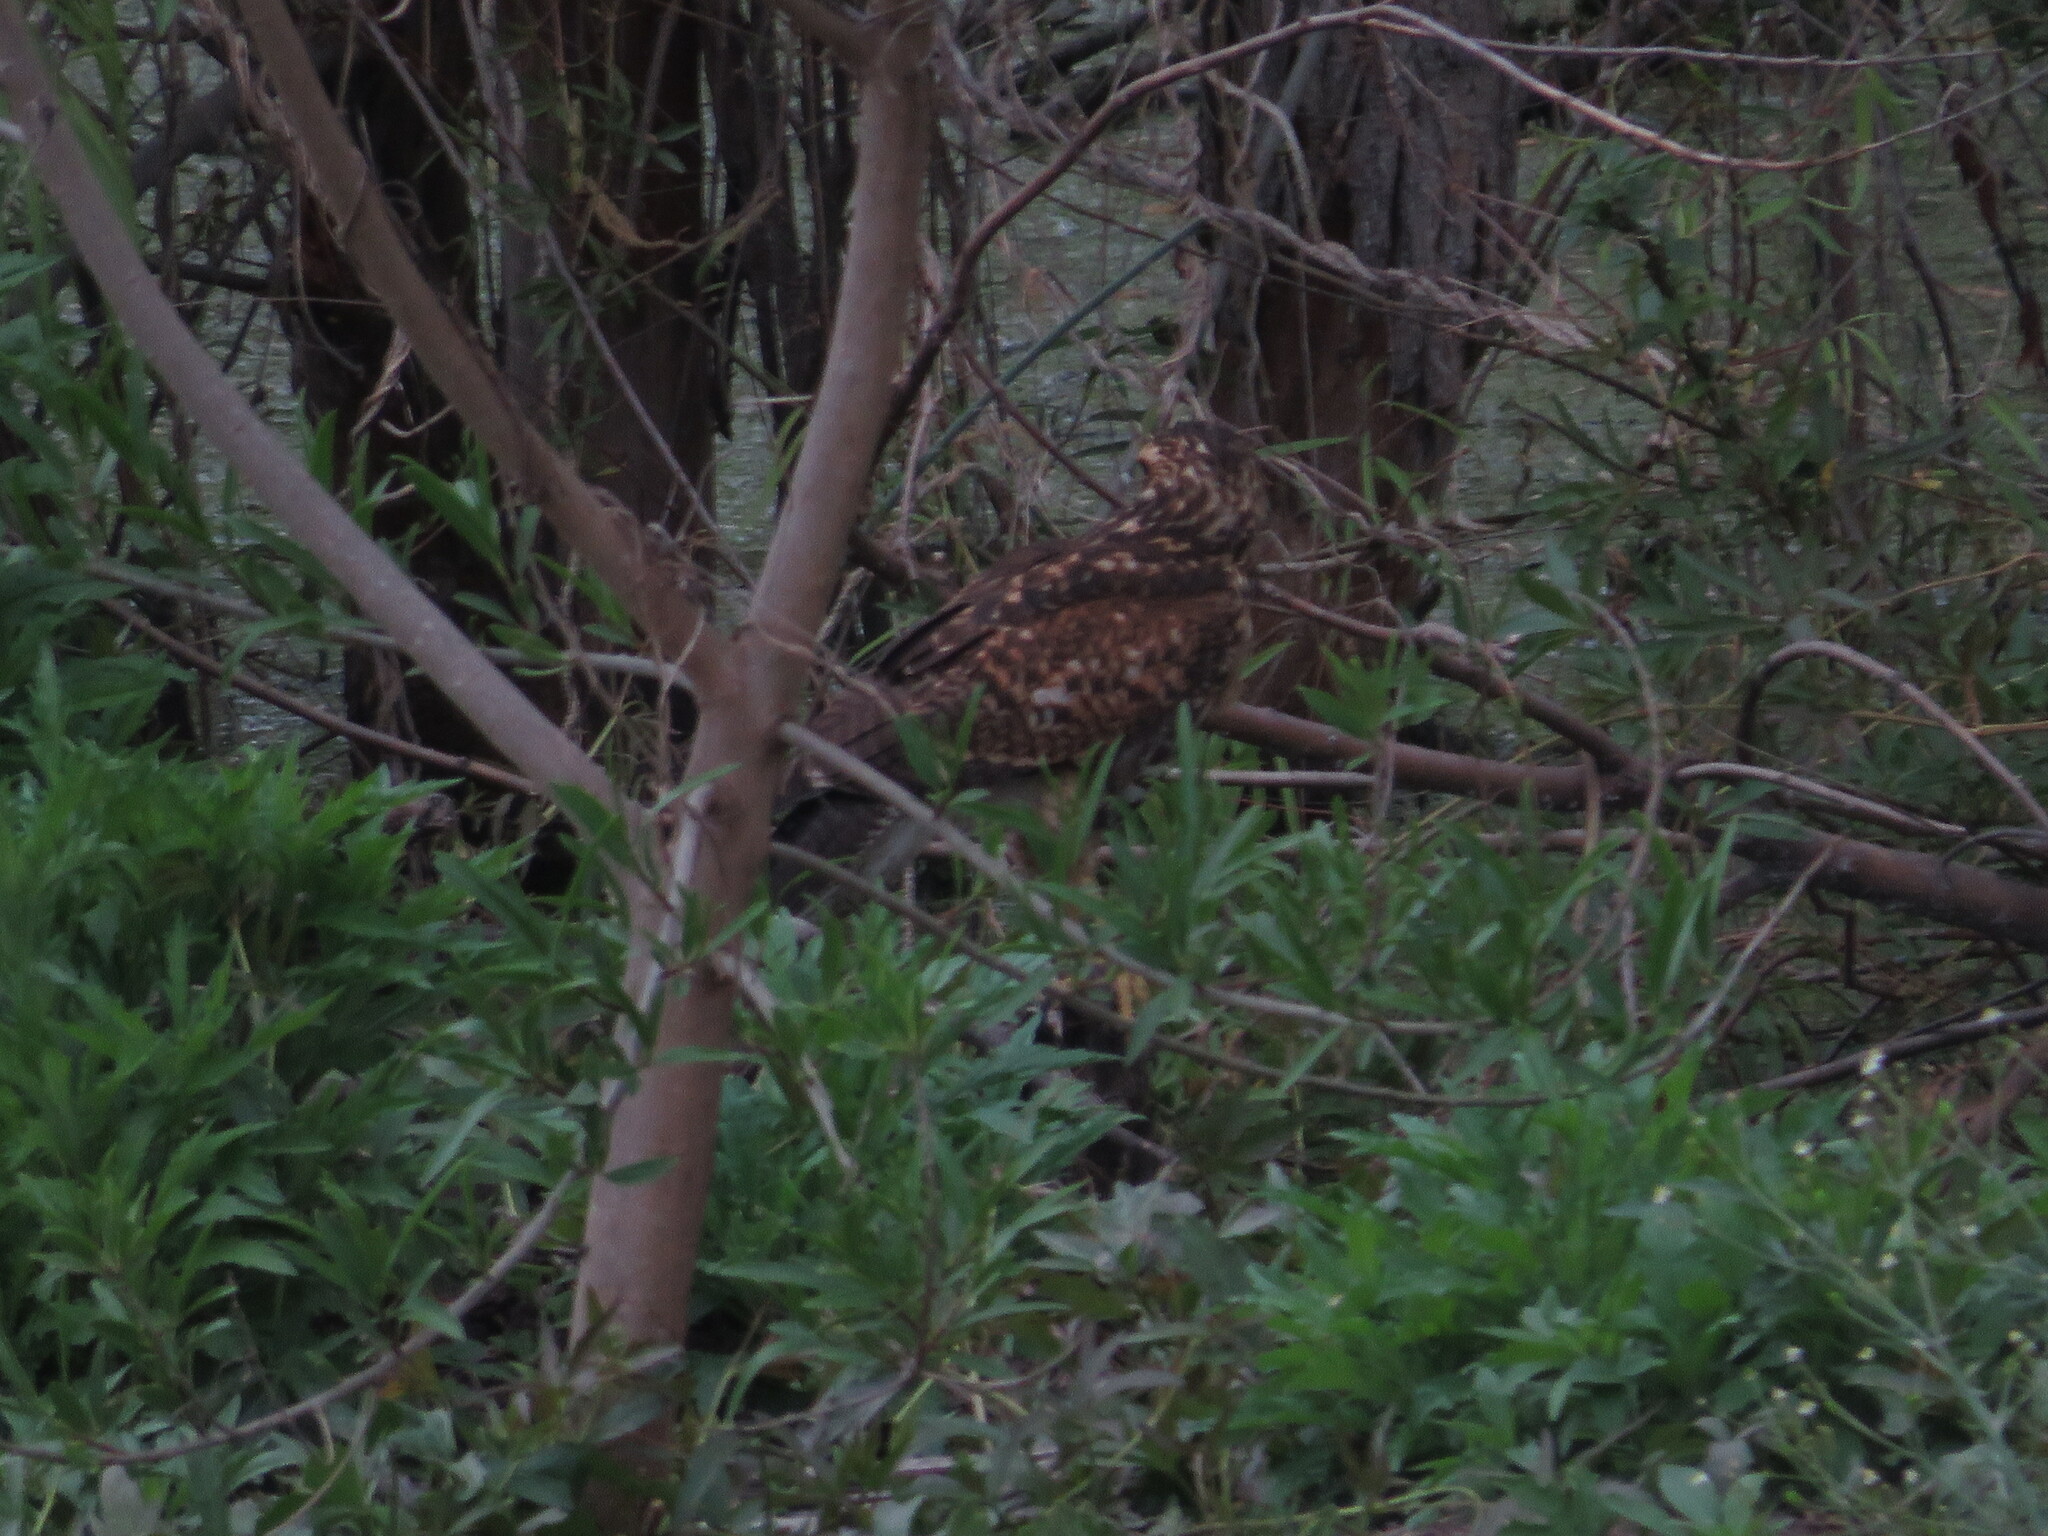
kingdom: Animalia
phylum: Chordata
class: Aves
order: Accipitriformes
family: Accipitridae
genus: Parabuteo
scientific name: Parabuteo unicinctus
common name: Harris's hawk
